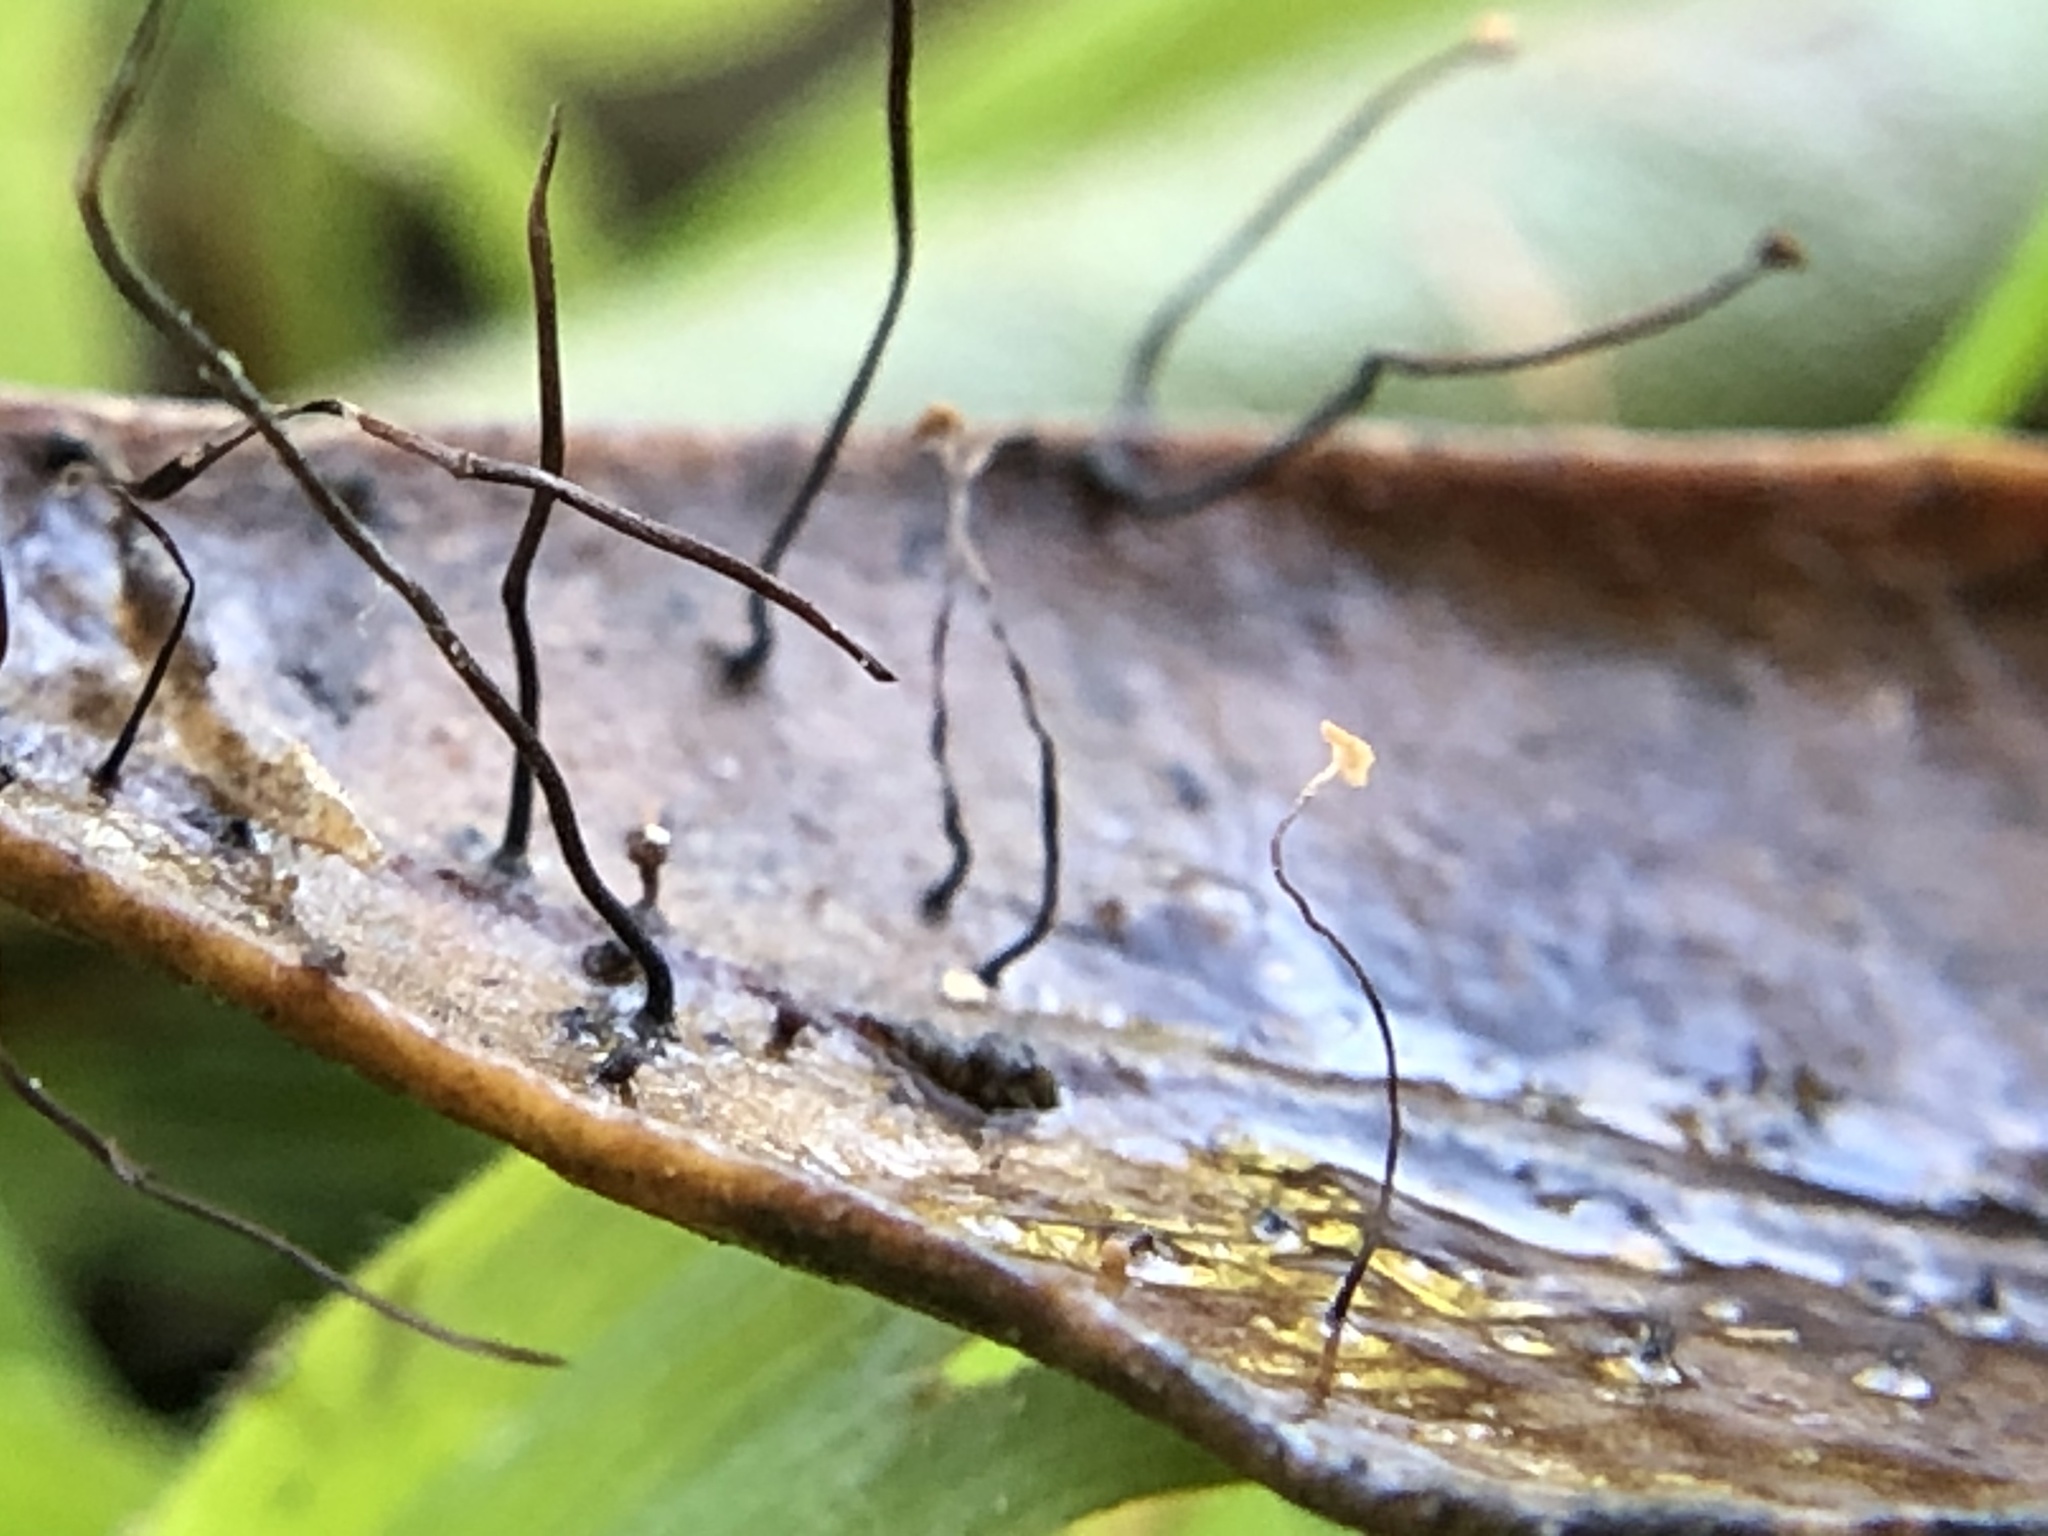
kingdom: Fungi
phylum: Basidiomycota
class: Agaricomycetes
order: Agaricales
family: Physalacriaceae
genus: Cryptomarasmius
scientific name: Cryptomarasmius corbariensis
